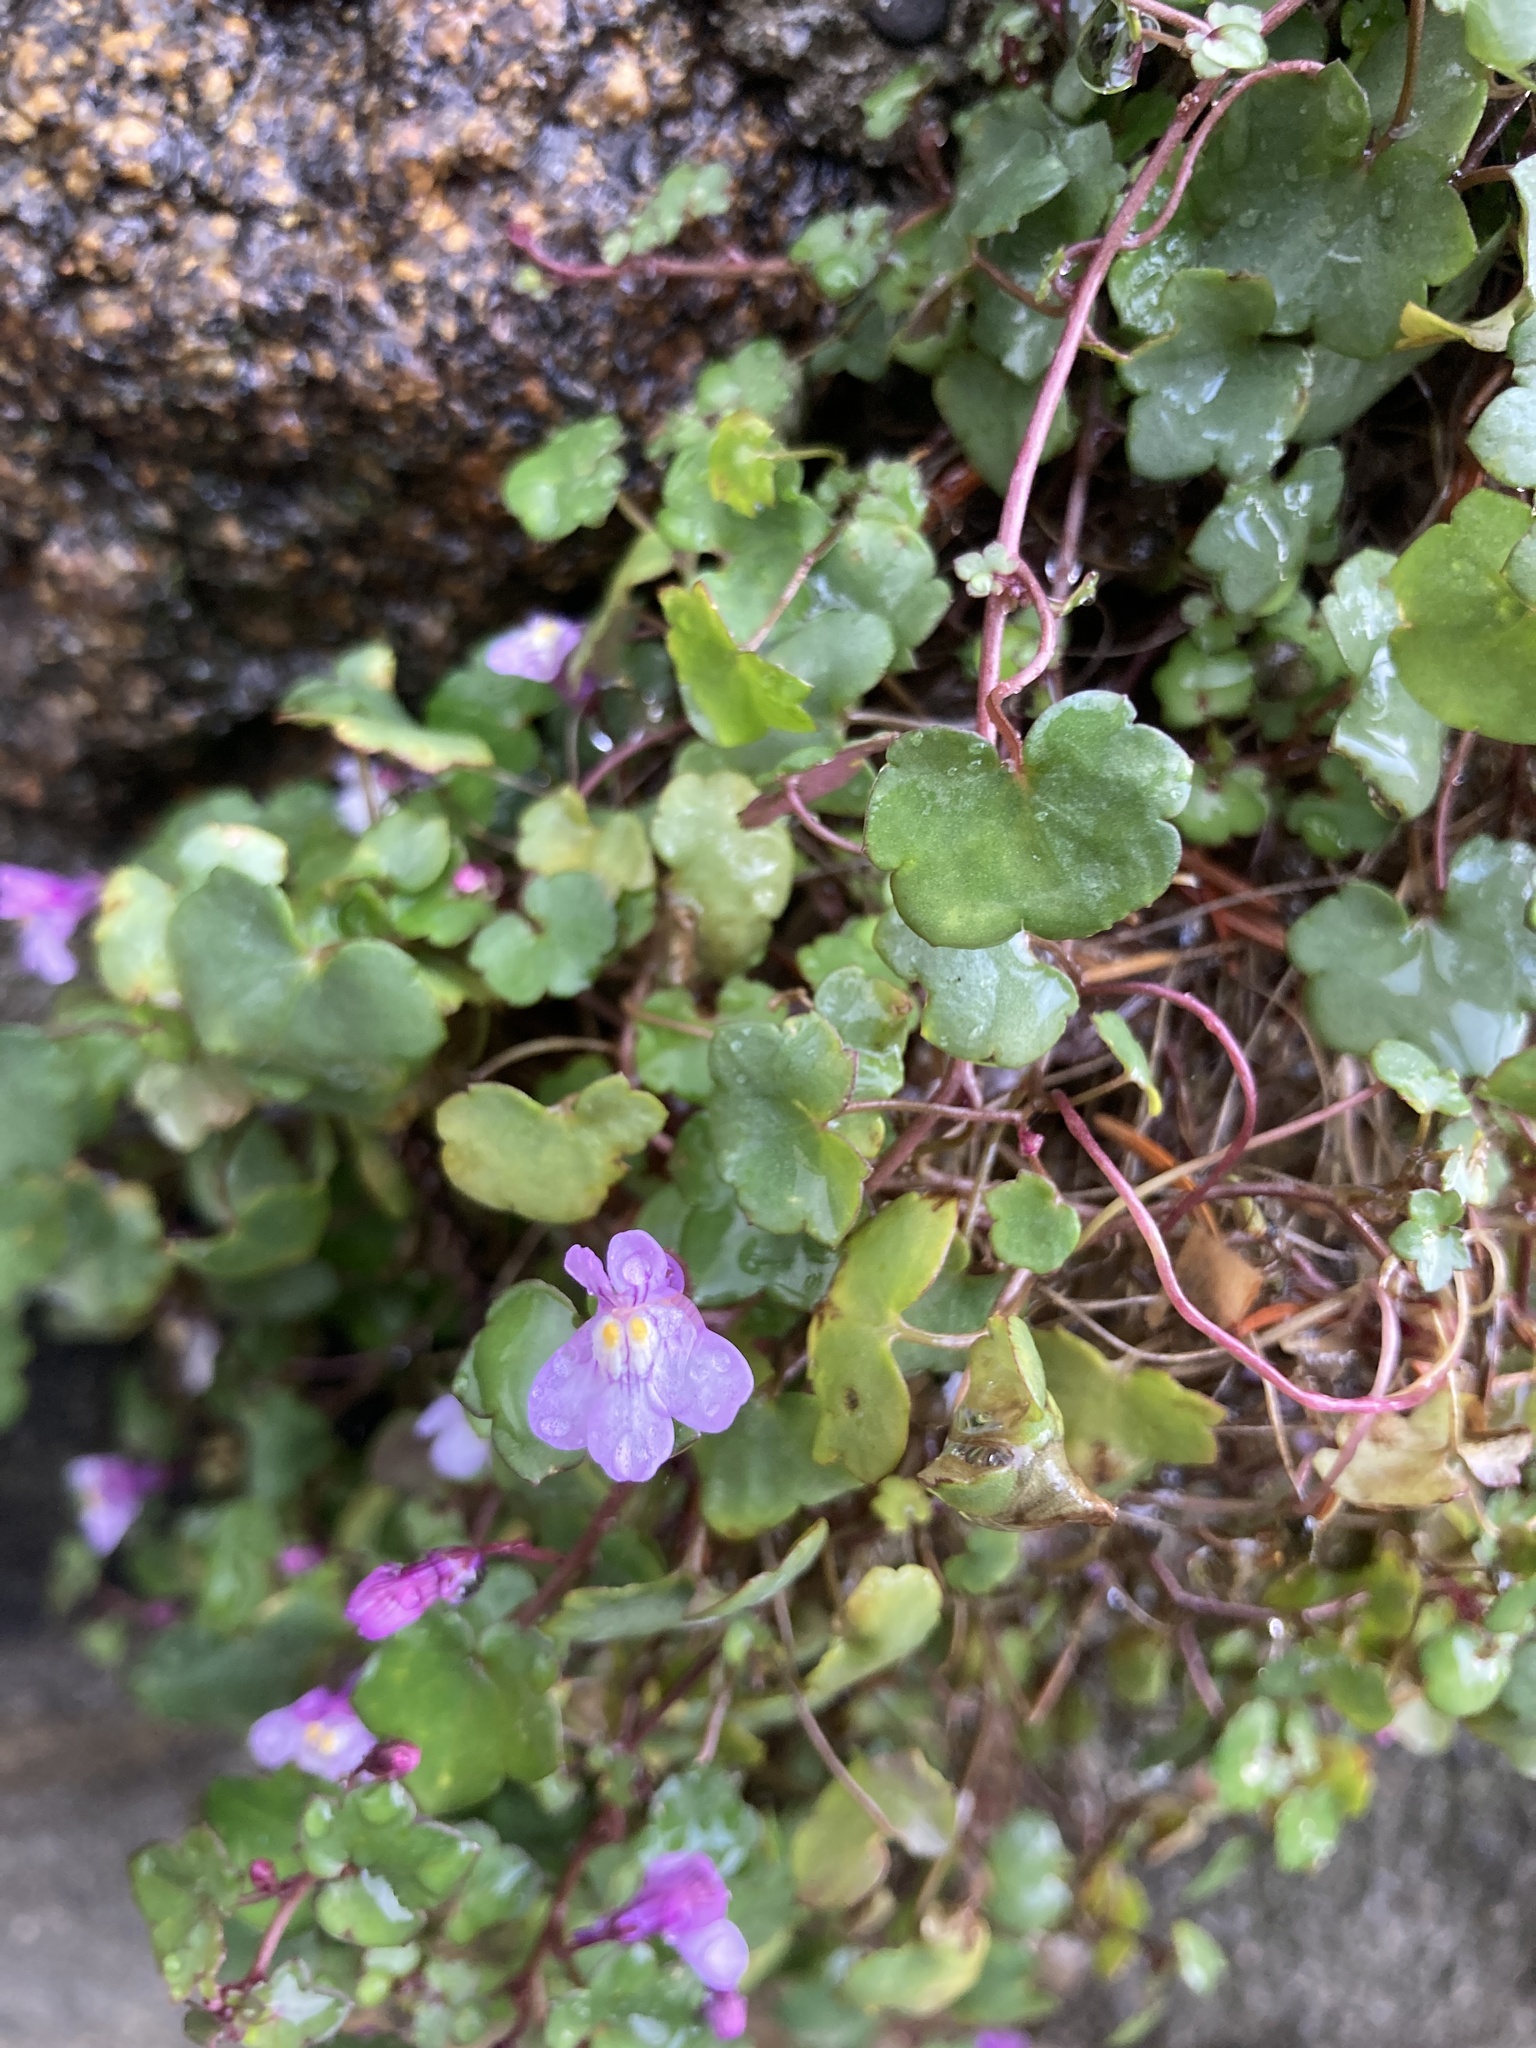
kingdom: Plantae
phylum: Tracheophyta
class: Magnoliopsida
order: Lamiales
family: Plantaginaceae
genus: Cymbalaria
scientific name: Cymbalaria muralis
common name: Ivy-leaved toadflax
